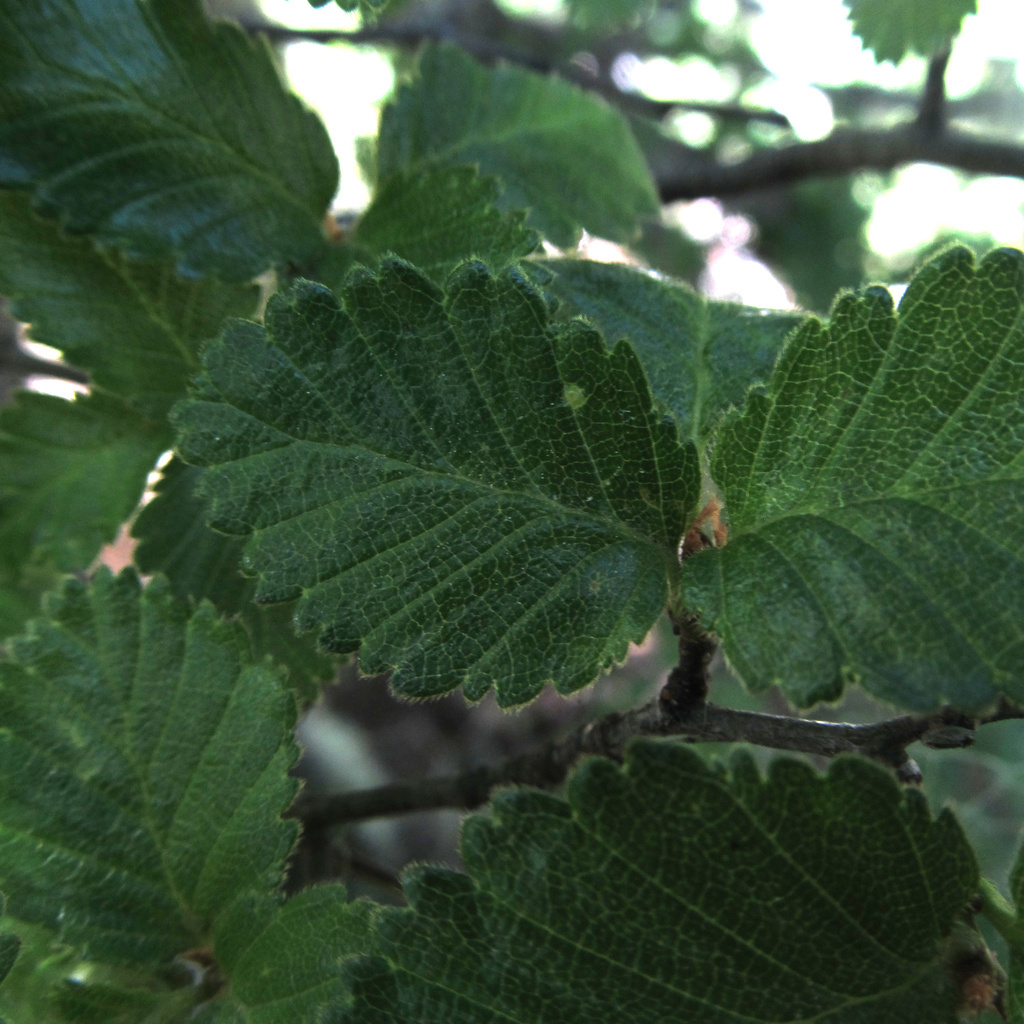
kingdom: Plantae
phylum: Tracheophyta
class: Magnoliopsida
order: Fagales
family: Nothofagaceae
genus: Nothofagus
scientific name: Nothofagus pumilio
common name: Lenga beech
